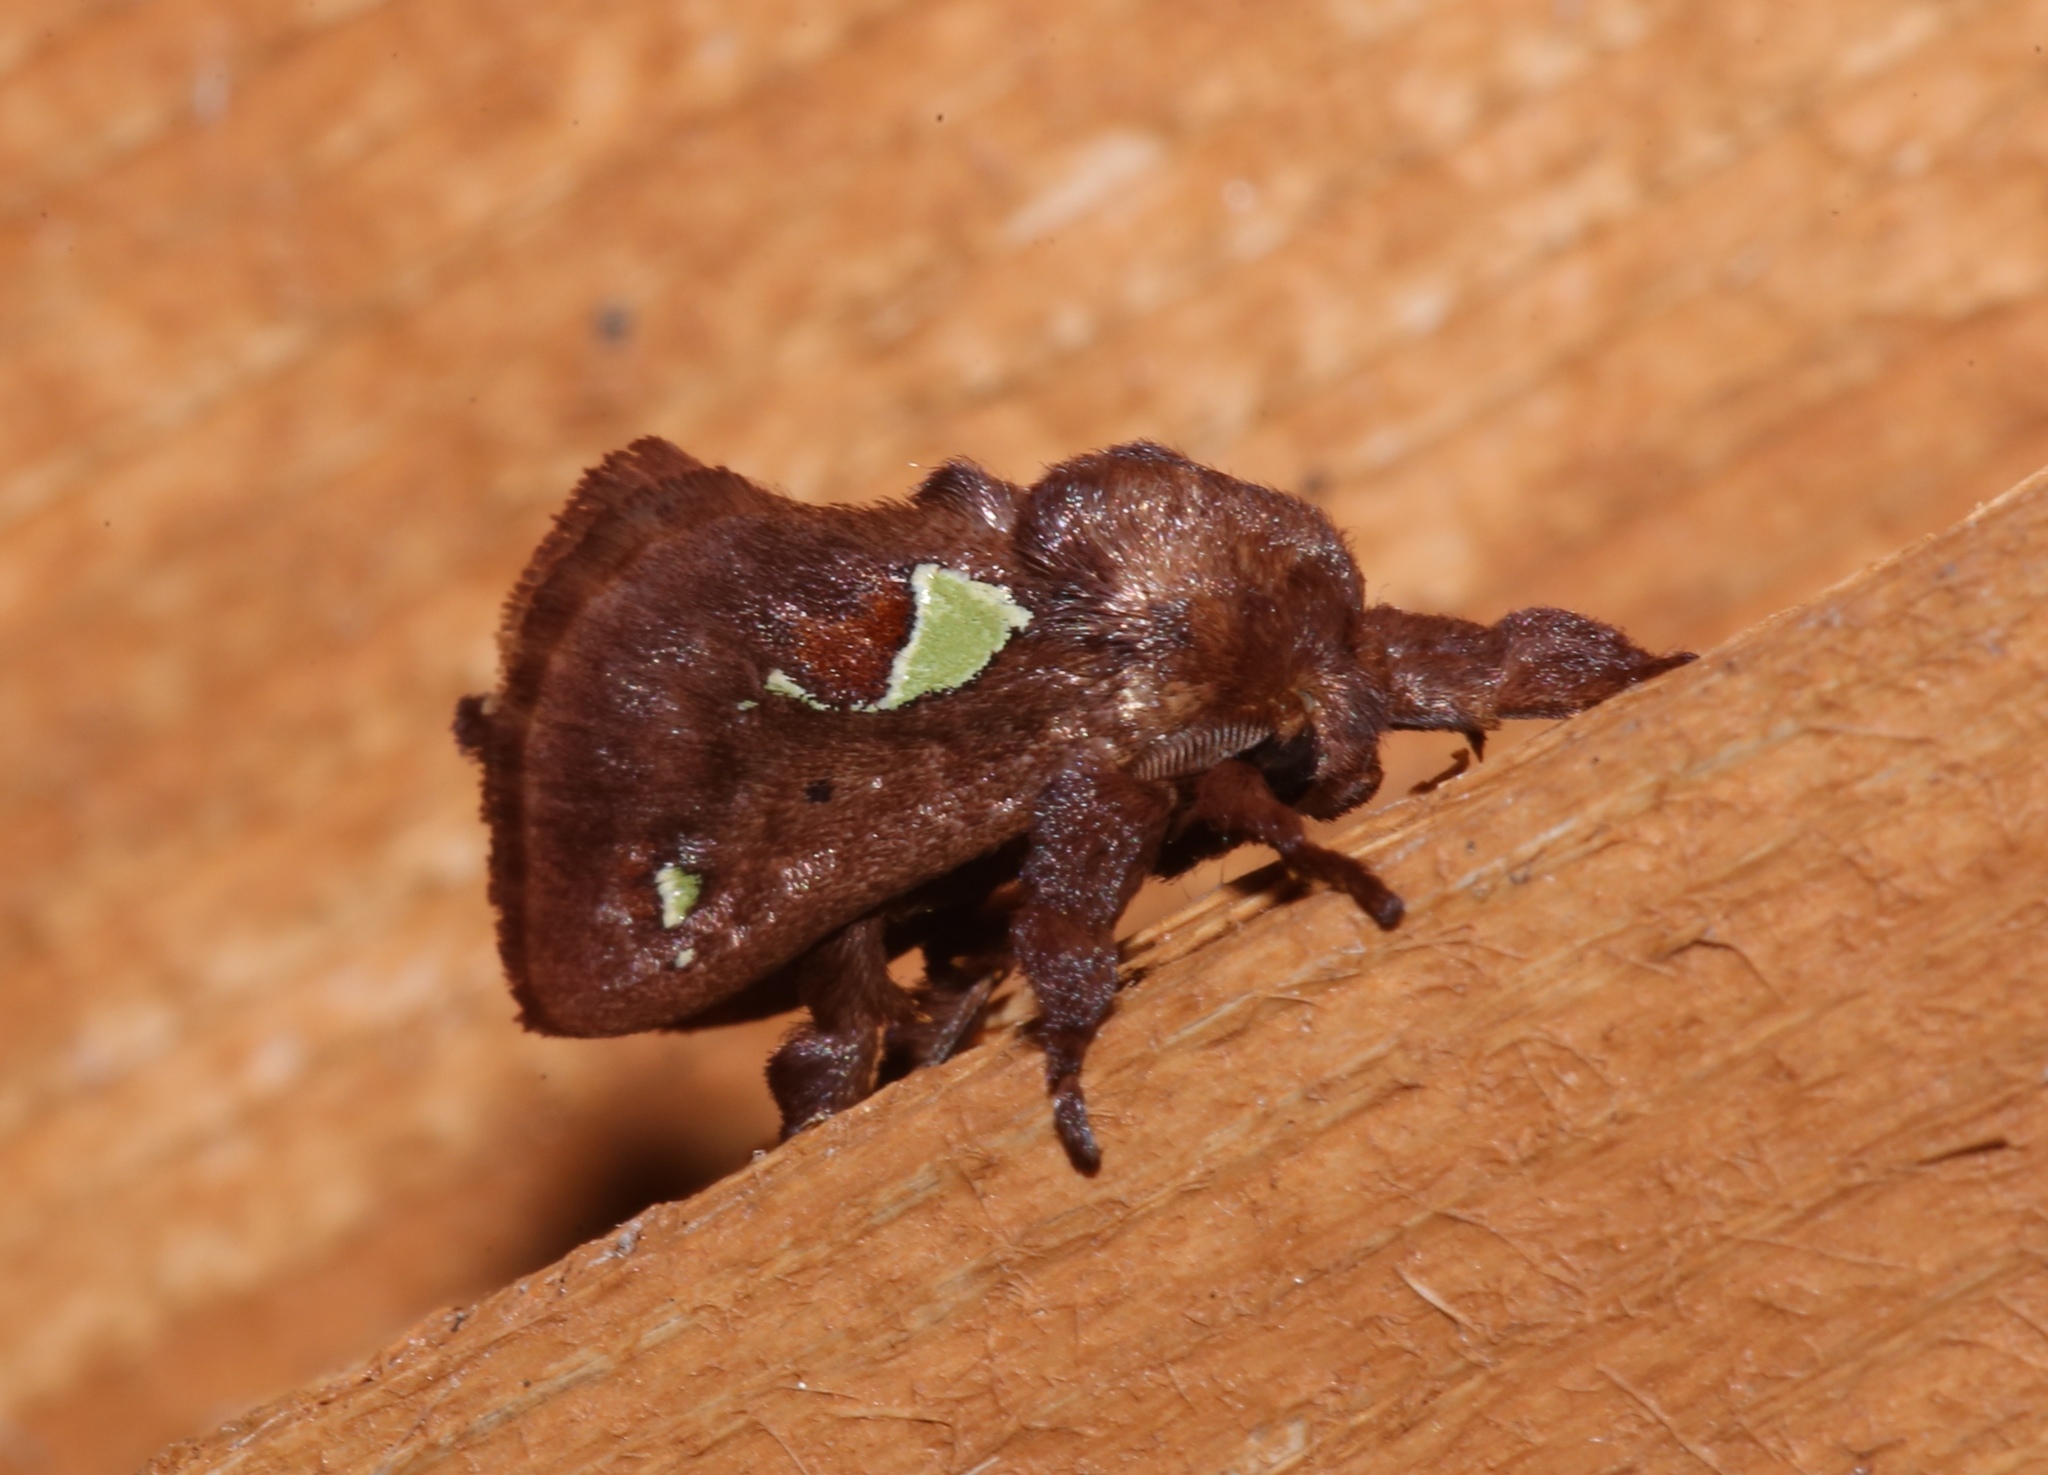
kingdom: Animalia
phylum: Arthropoda
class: Insecta
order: Lepidoptera
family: Limacodidae
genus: Euclea
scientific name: Euclea delphinii
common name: Spiny oak-slug moth
